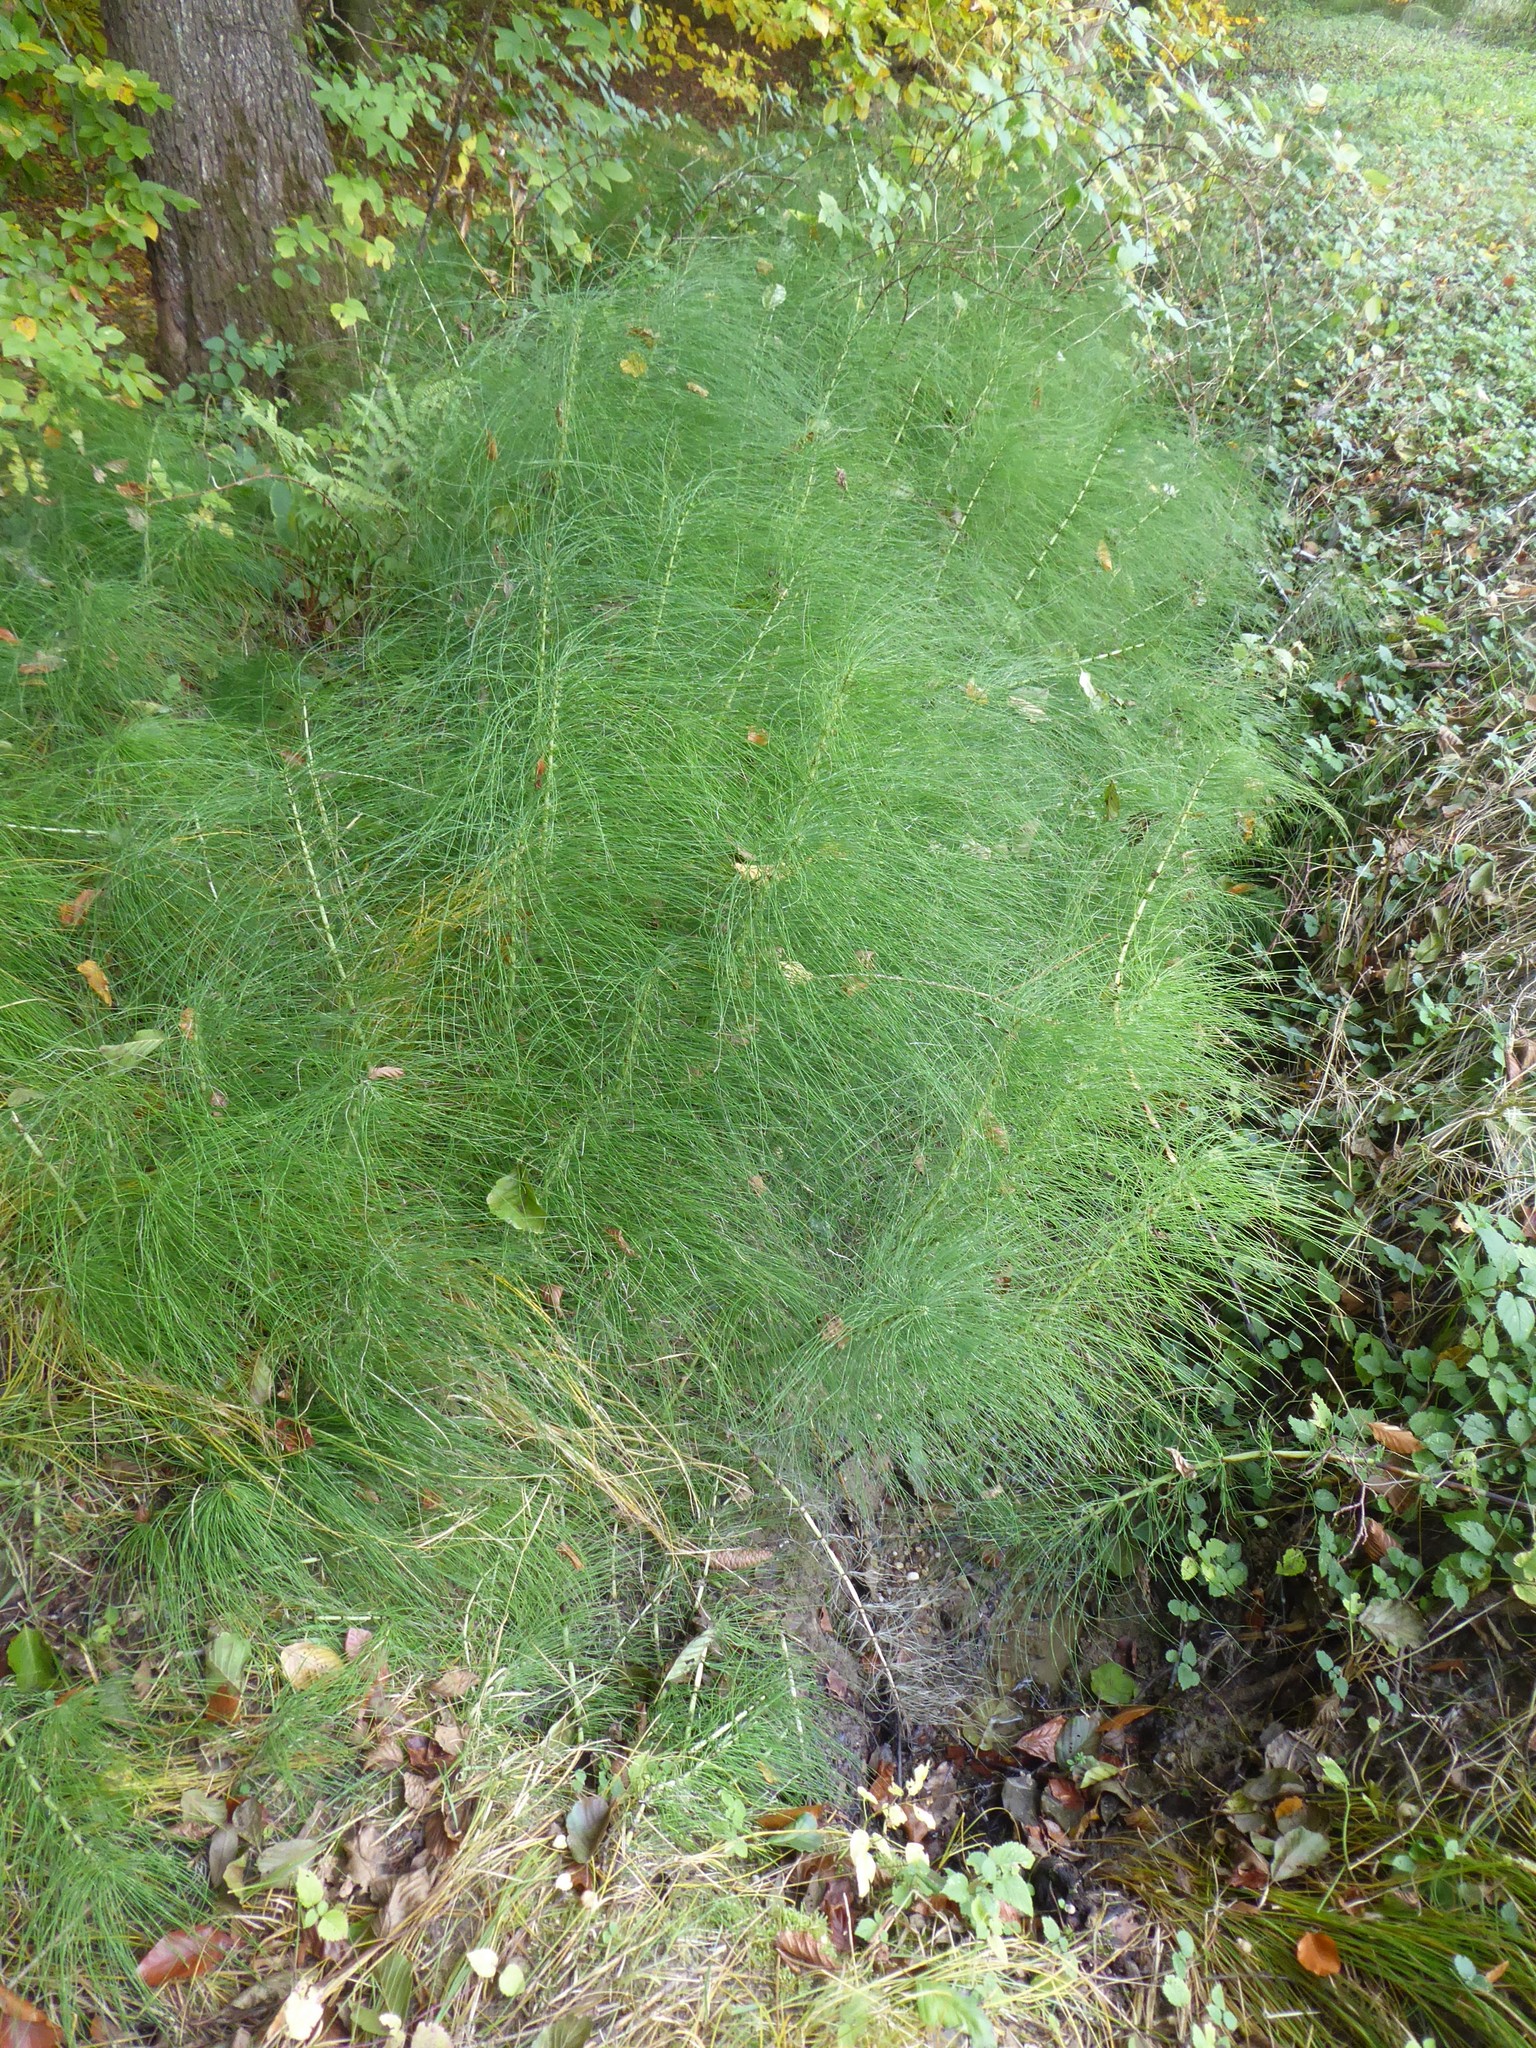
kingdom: Plantae
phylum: Tracheophyta
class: Polypodiopsida
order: Equisetales
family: Equisetaceae
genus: Equisetum
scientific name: Equisetum telmateia
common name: Great horsetail
